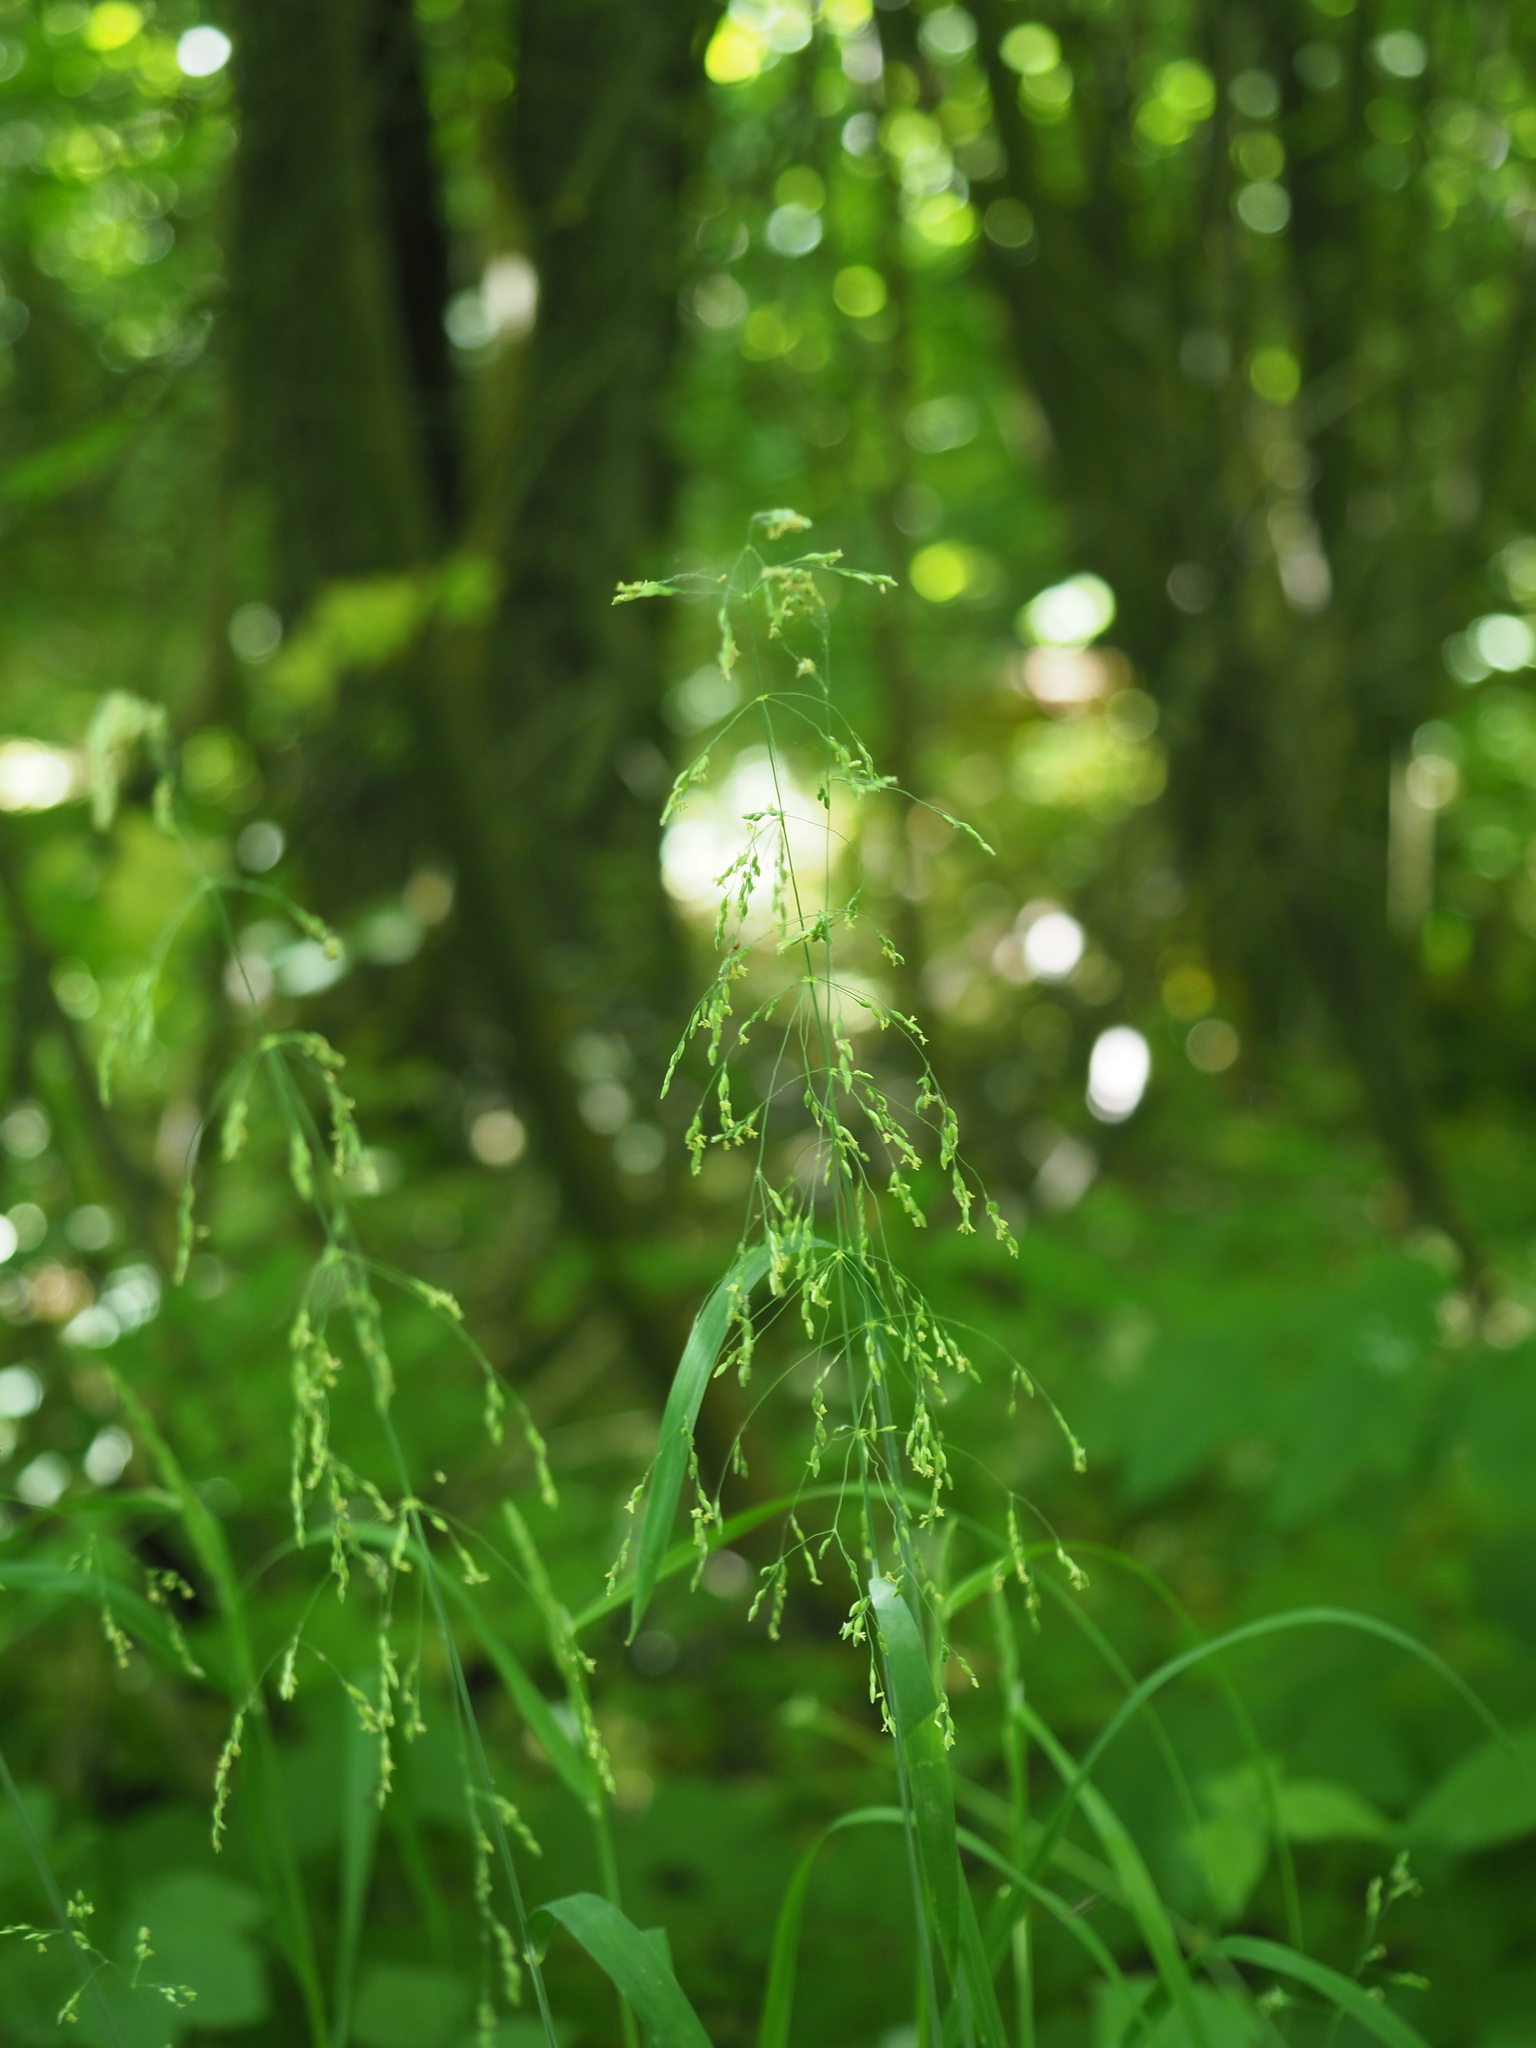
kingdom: Plantae
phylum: Tracheophyta
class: Liliopsida
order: Poales
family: Poaceae
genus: Milium
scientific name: Milium effusum
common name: Wood millet
